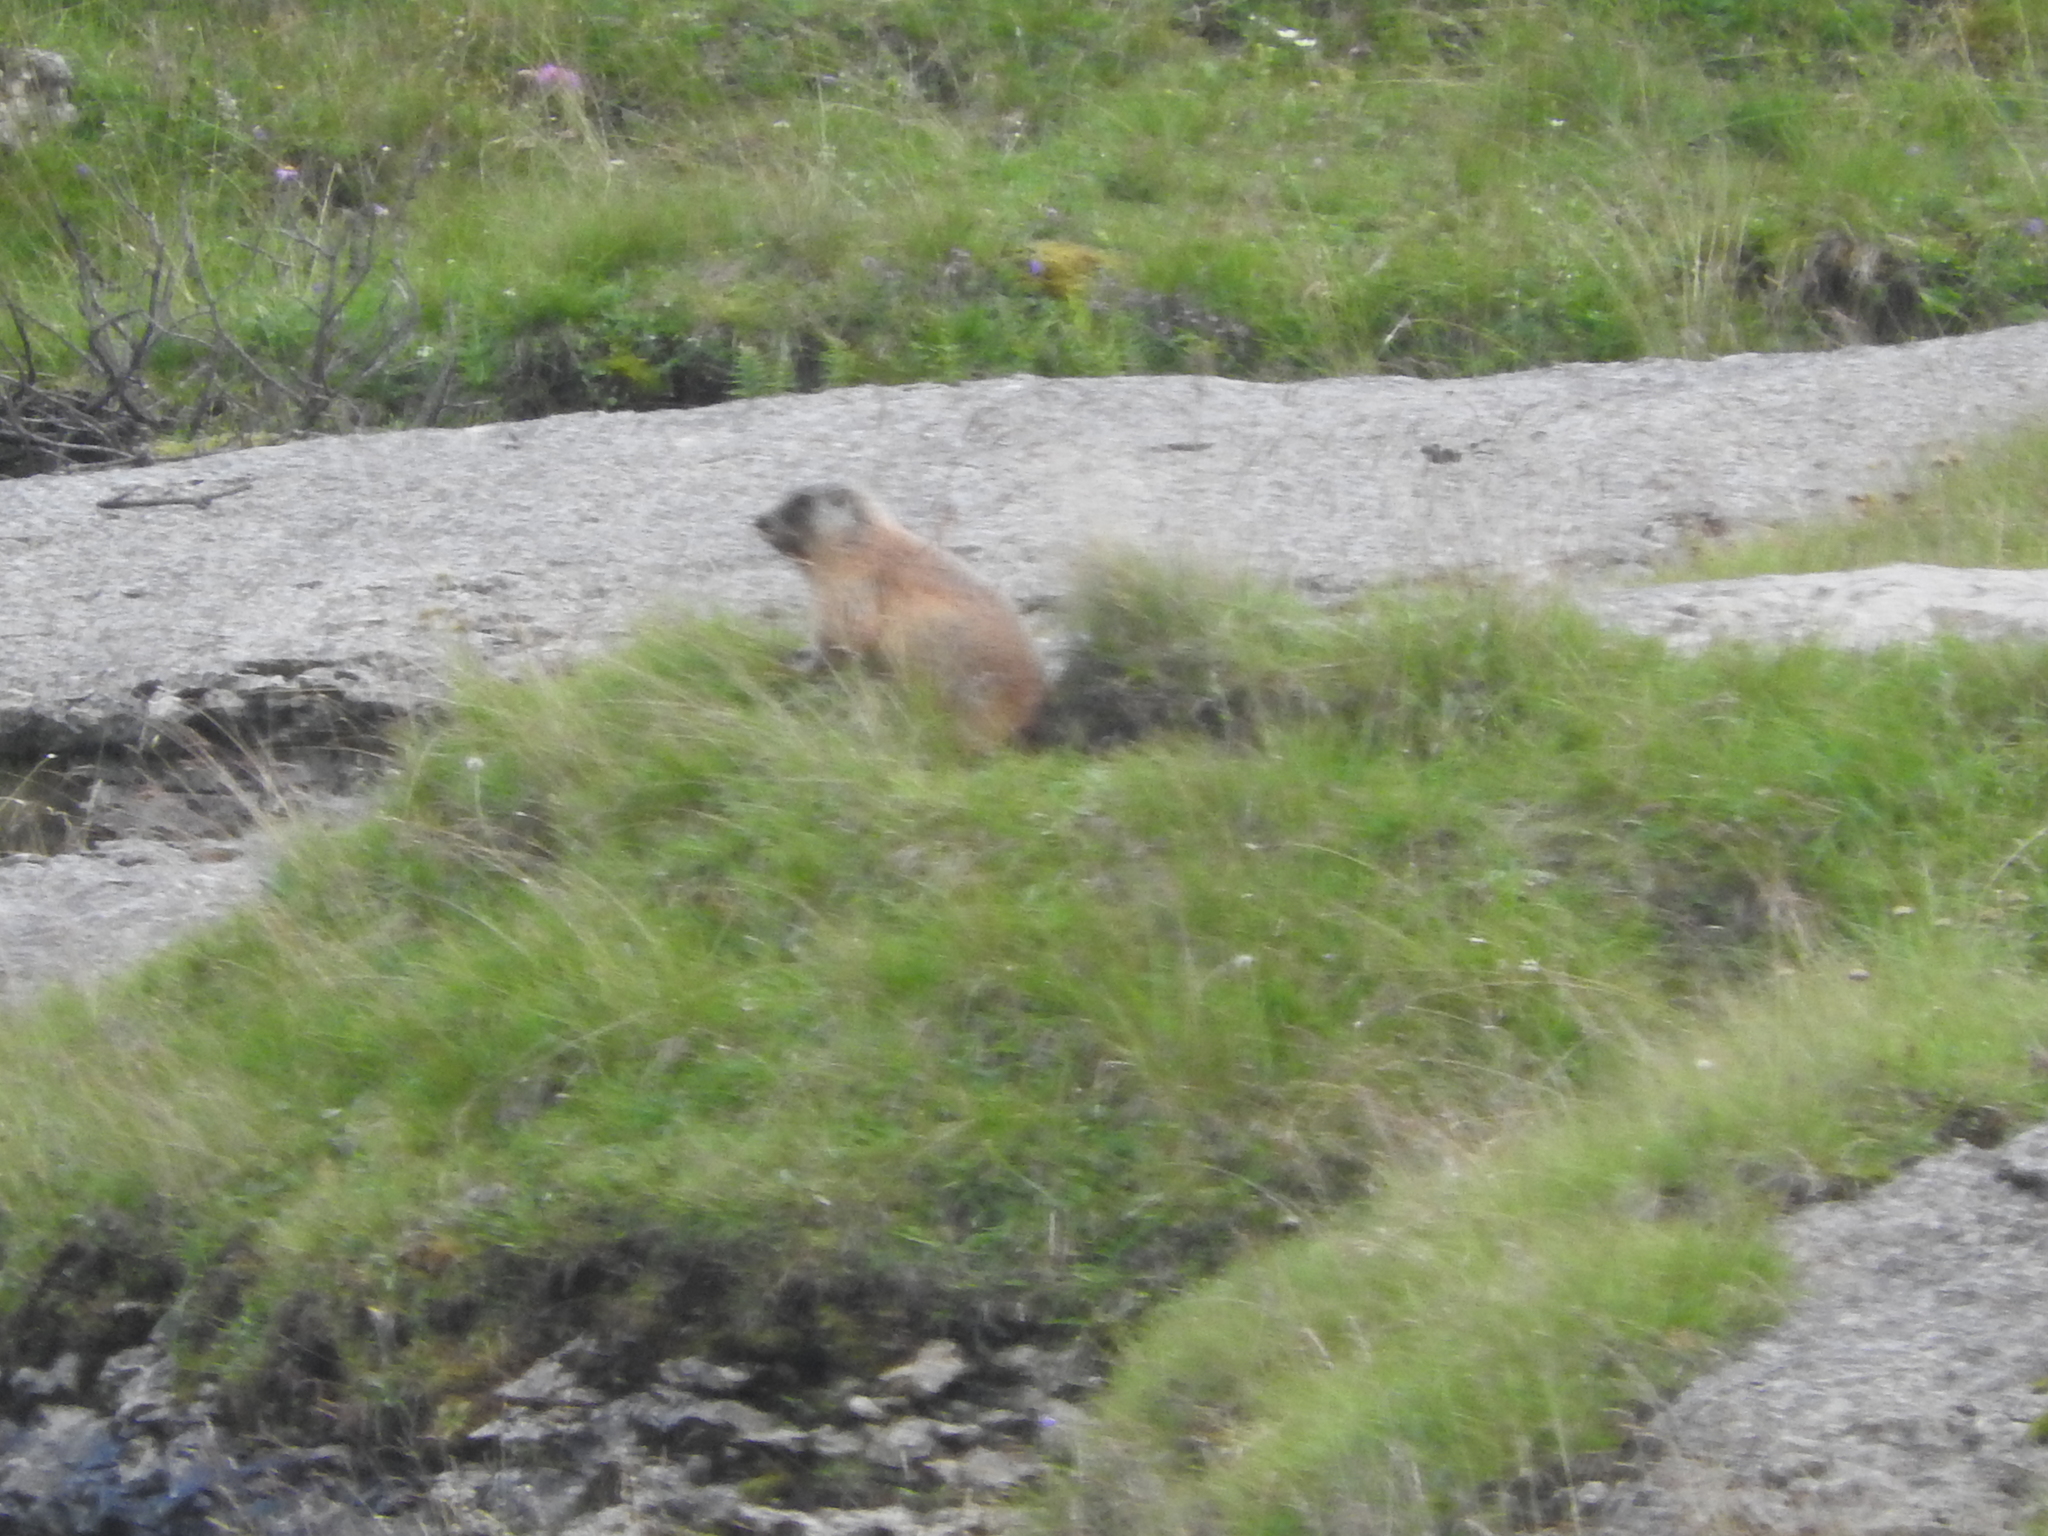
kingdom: Animalia
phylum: Chordata
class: Mammalia
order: Rodentia
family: Sciuridae
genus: Marmota
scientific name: Marmota marmota
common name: Alpine marmot
